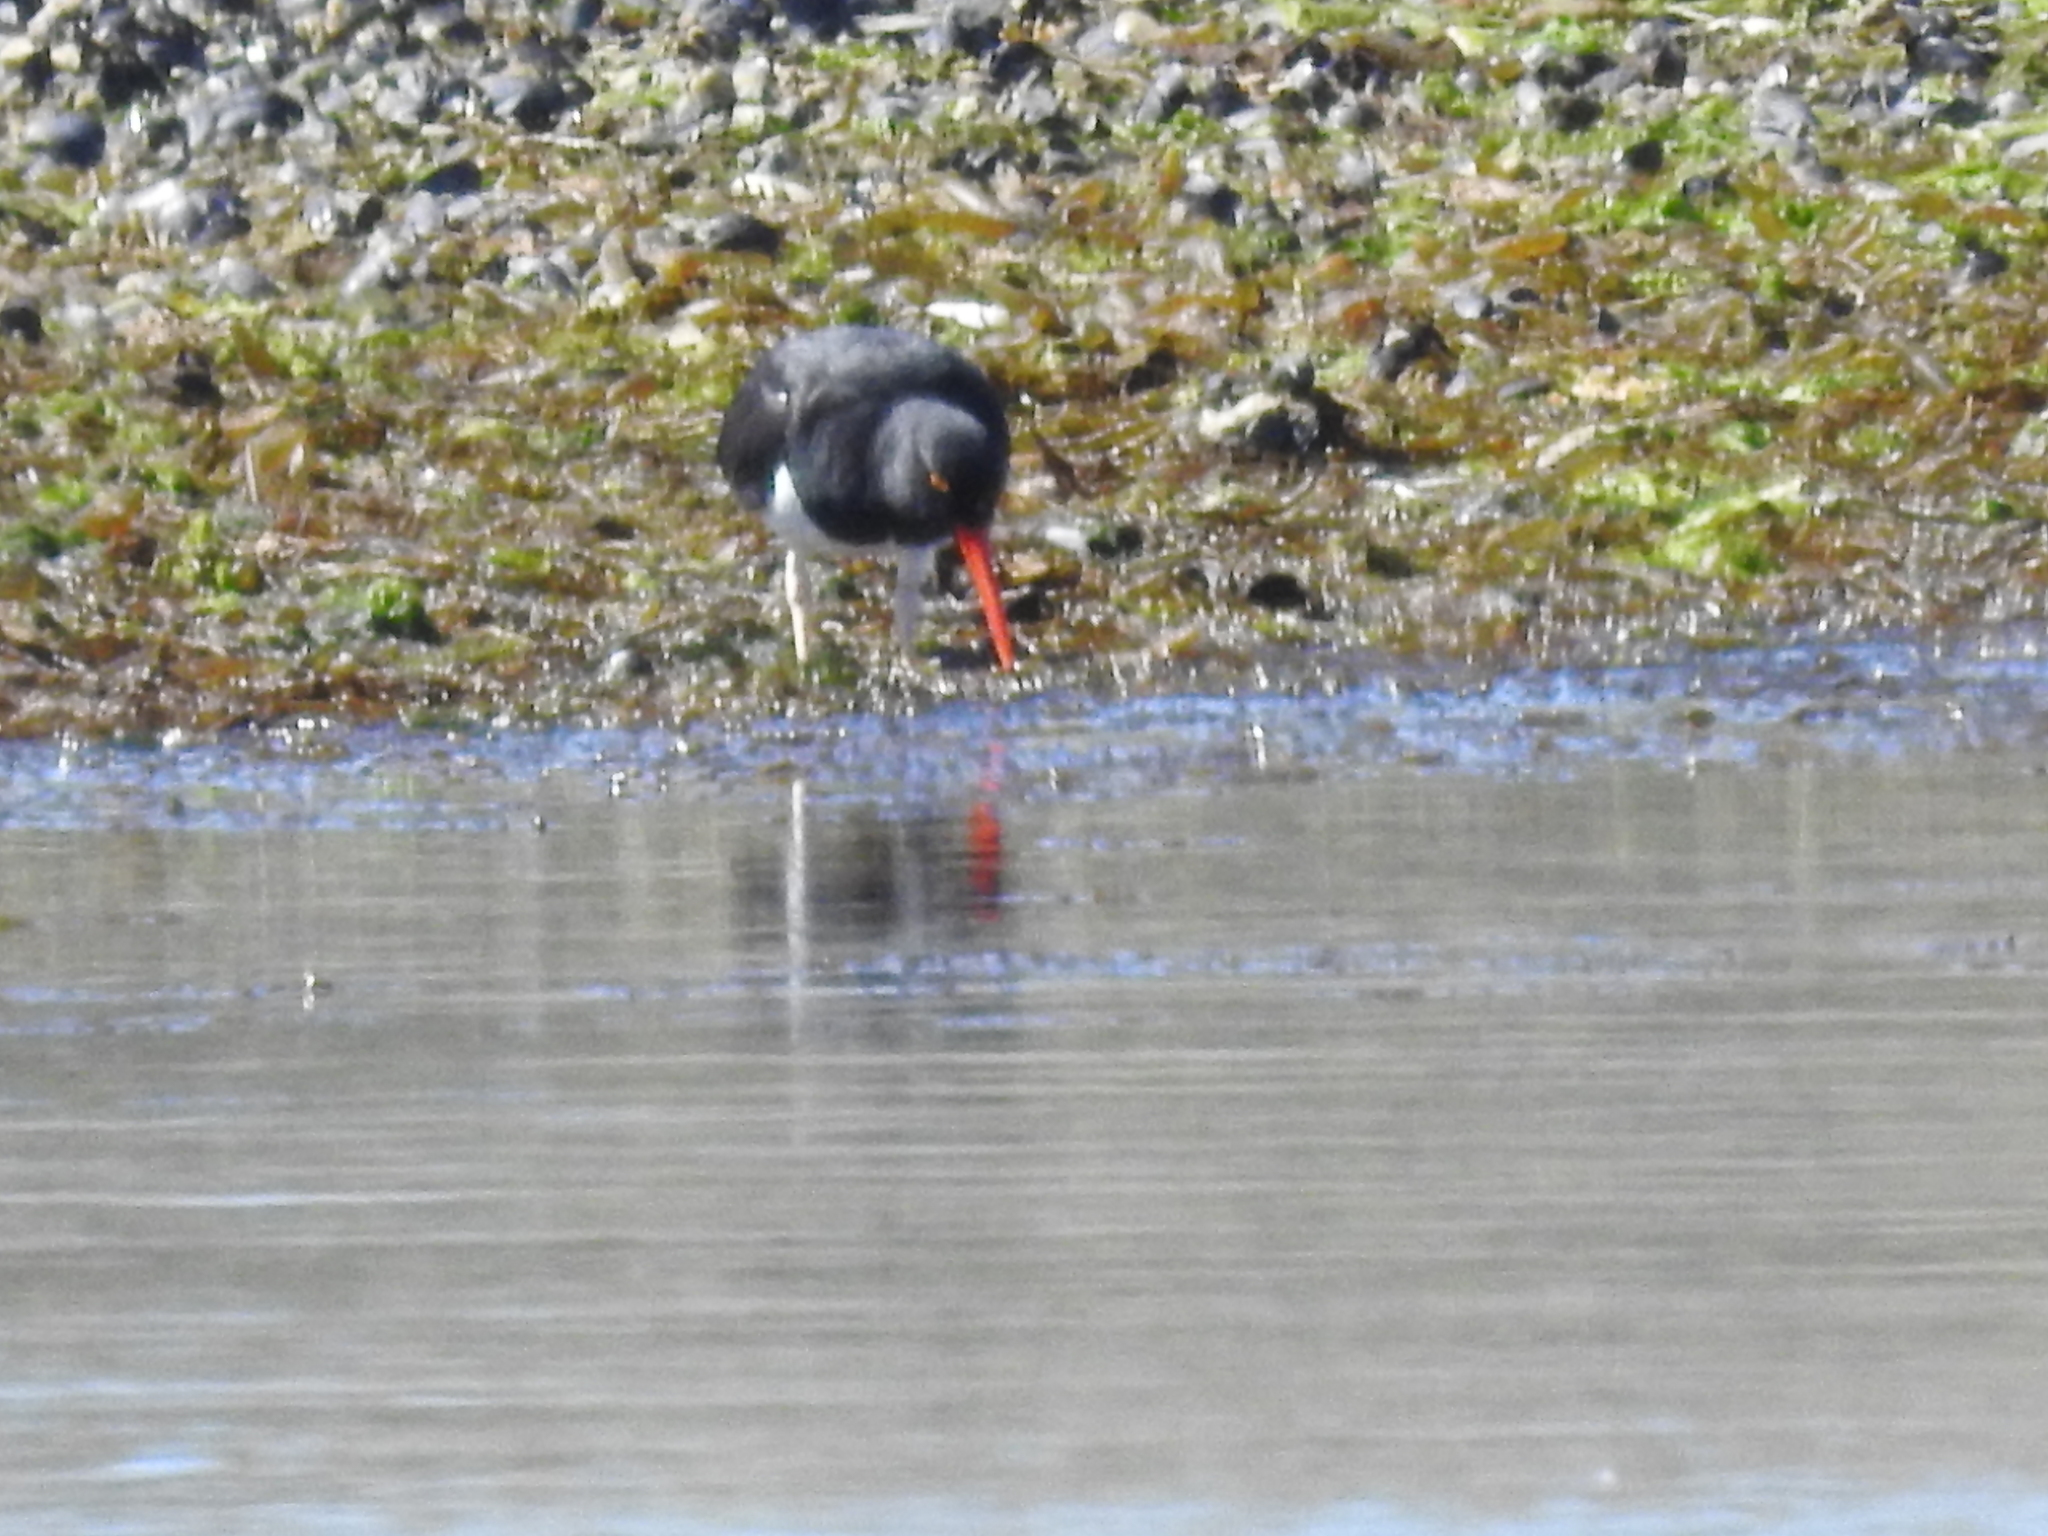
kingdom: Animalia
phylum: Chordata
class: Aves
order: Charadriiformes
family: Haematopodidae
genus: Haematopus
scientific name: Haematopus leucopodus
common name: Magellanic oystercatcher
